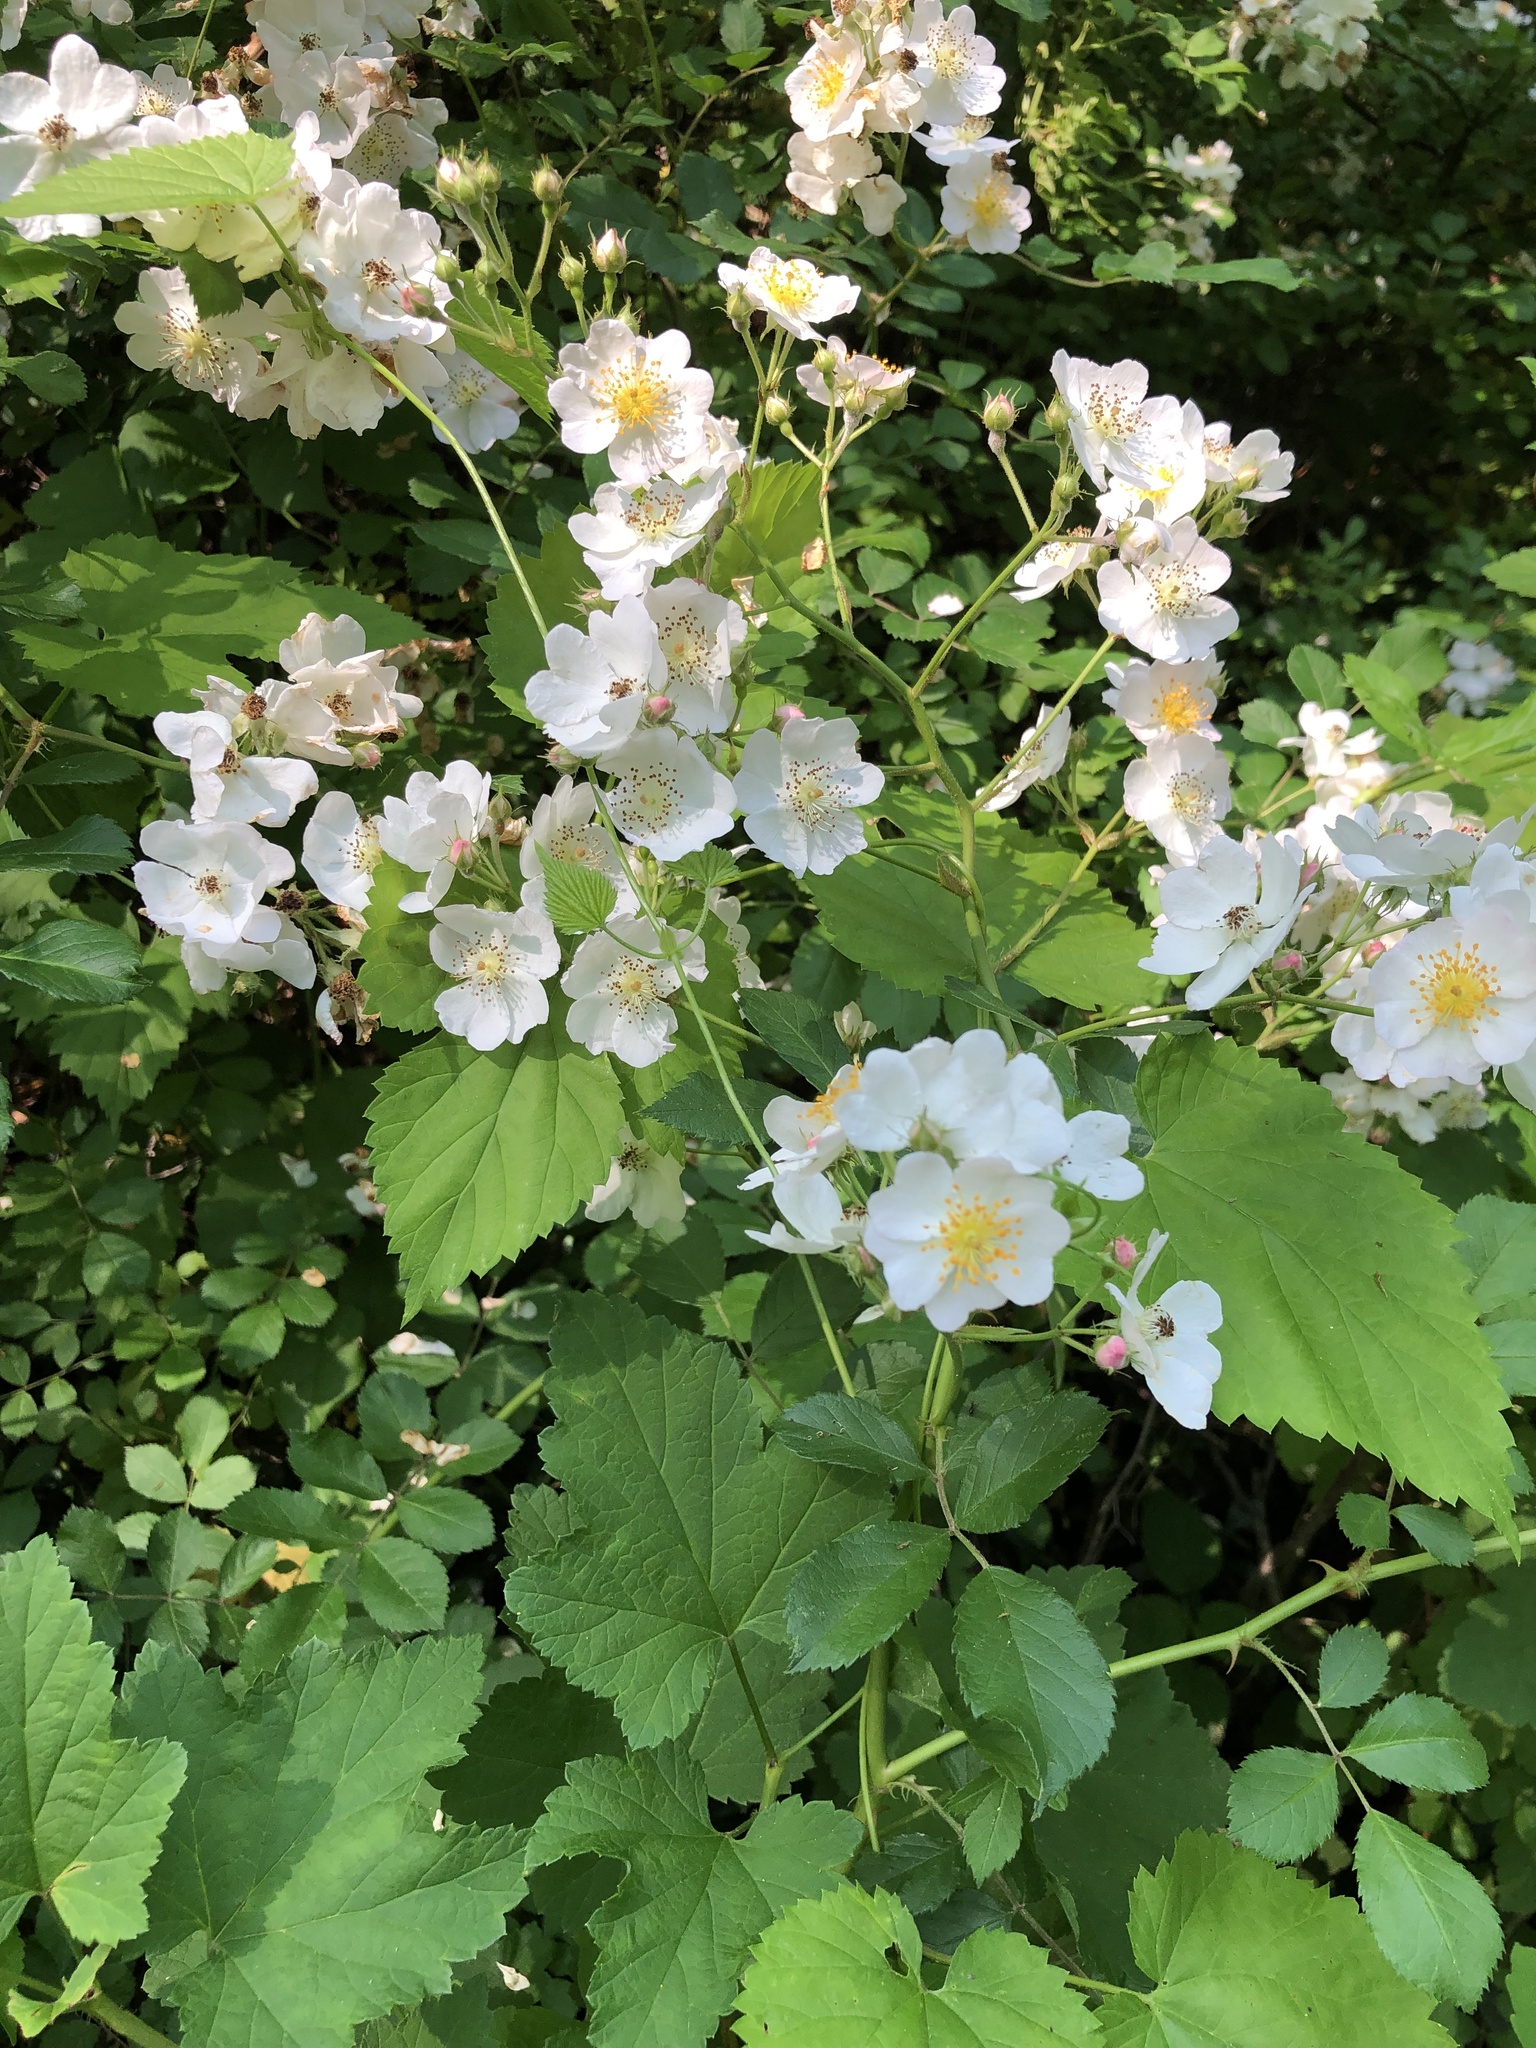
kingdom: Plantae
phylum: Tracheophyta
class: Magnoliopsida
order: Rosales
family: Rosaceae
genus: Rosa
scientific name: Rosa multiflora
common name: Multiflora rose
